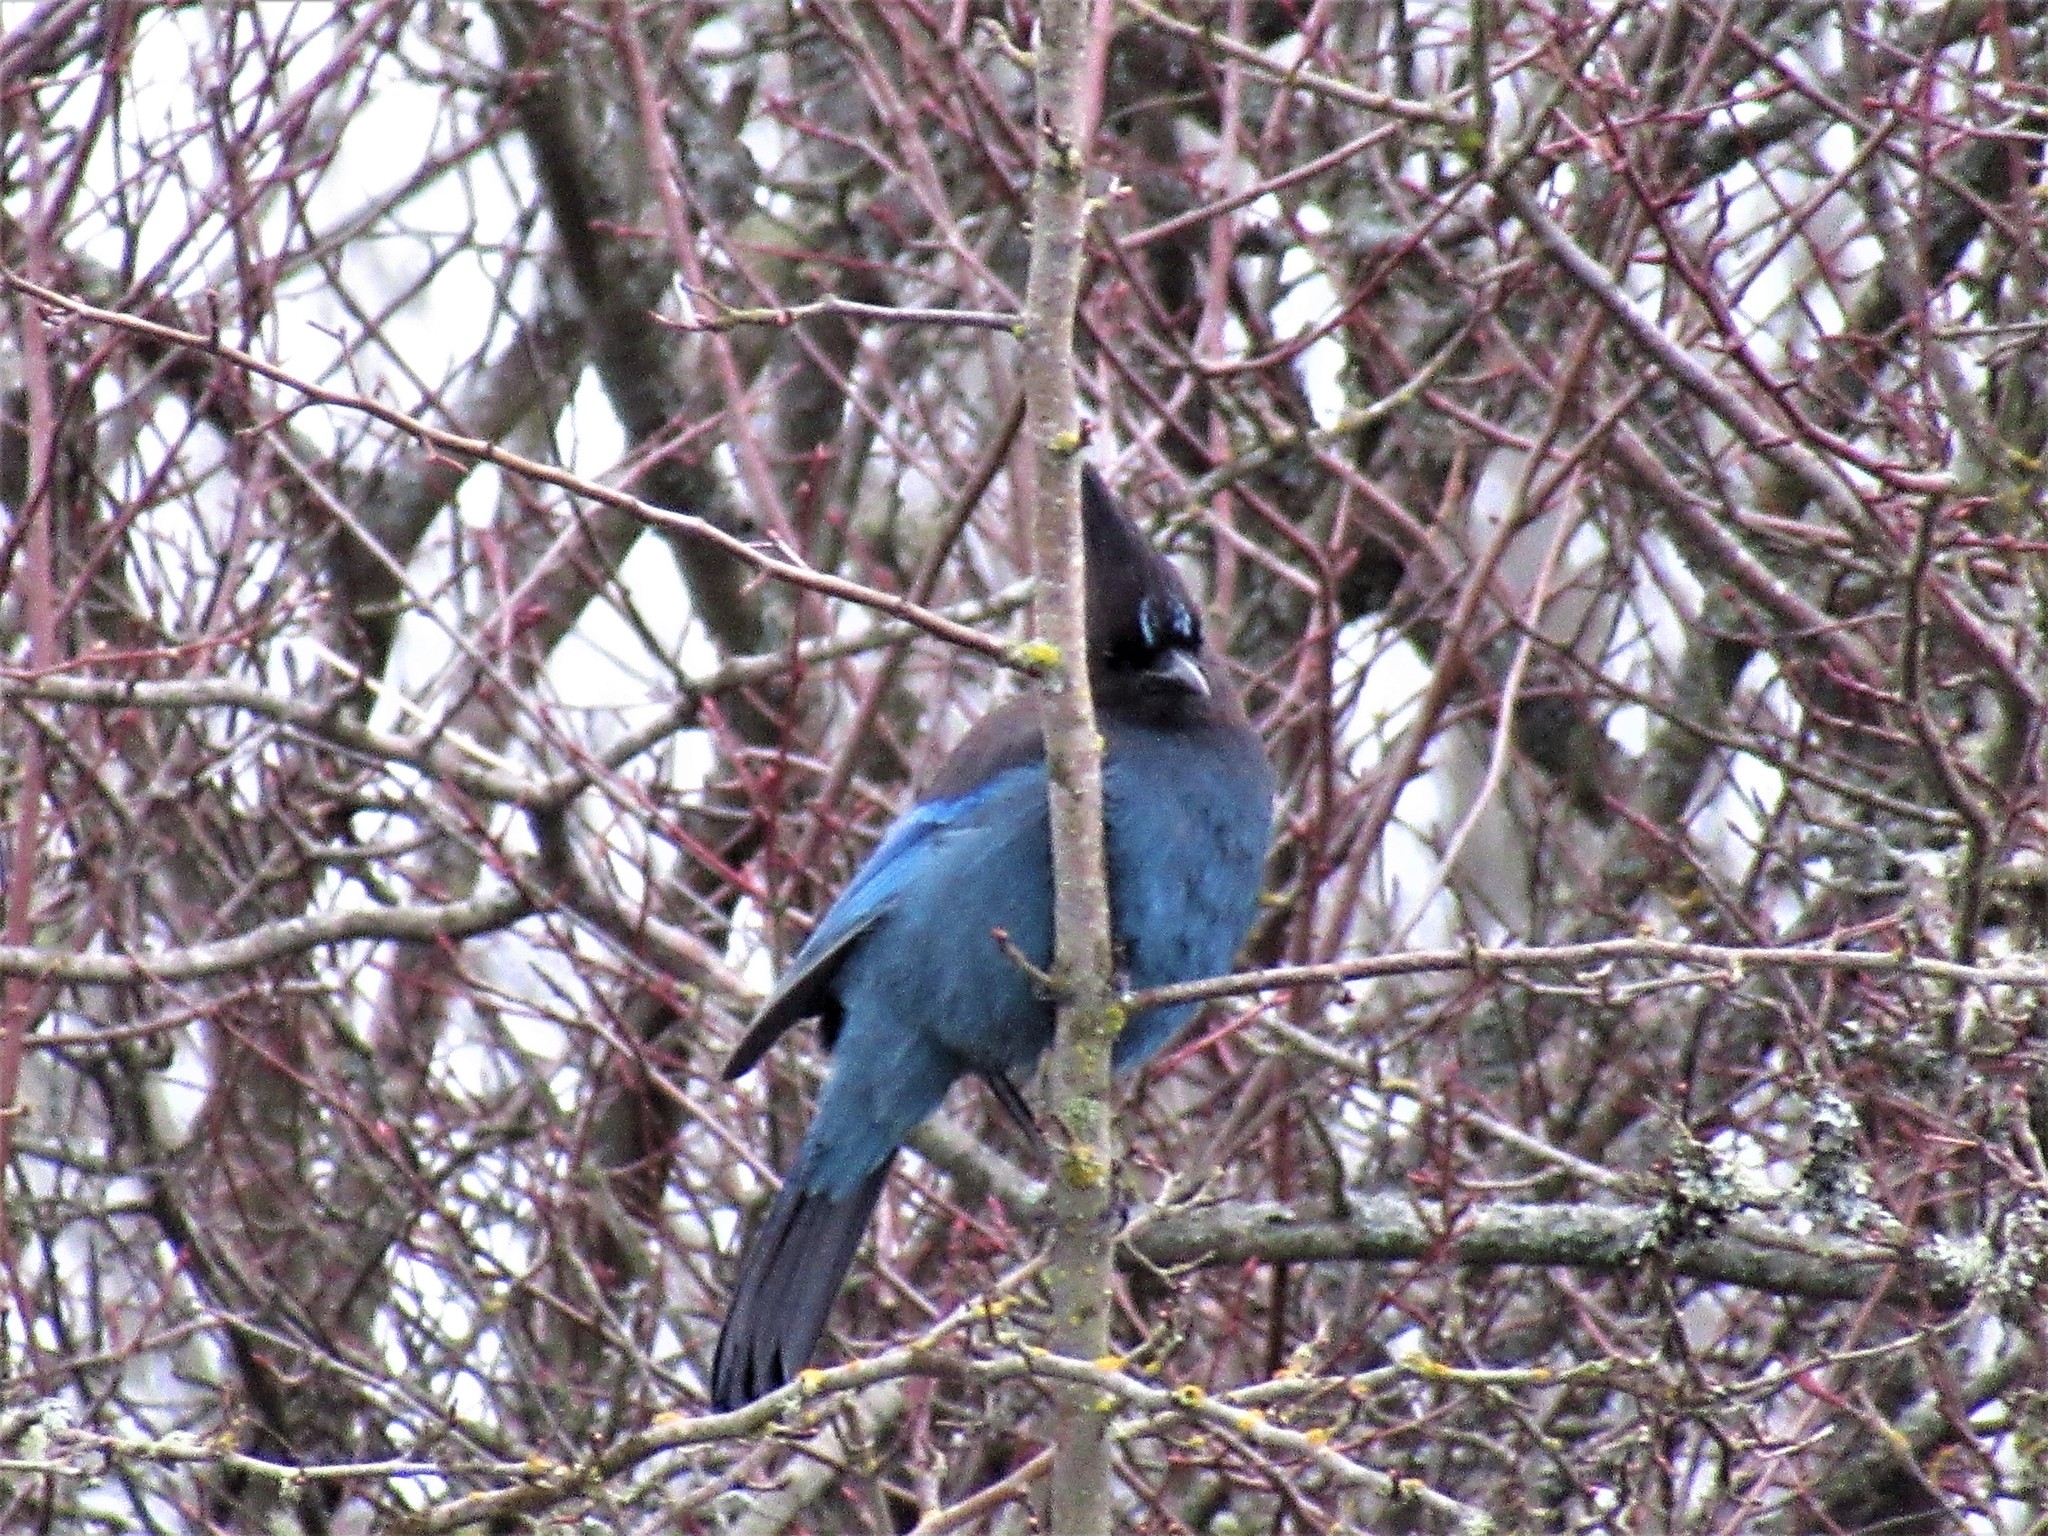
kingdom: Animalia
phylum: Chordata
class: Aves
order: Passeriformes
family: Corvidae
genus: Cyanocitta
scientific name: Cyanocitta stelleri
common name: Steller's jay
